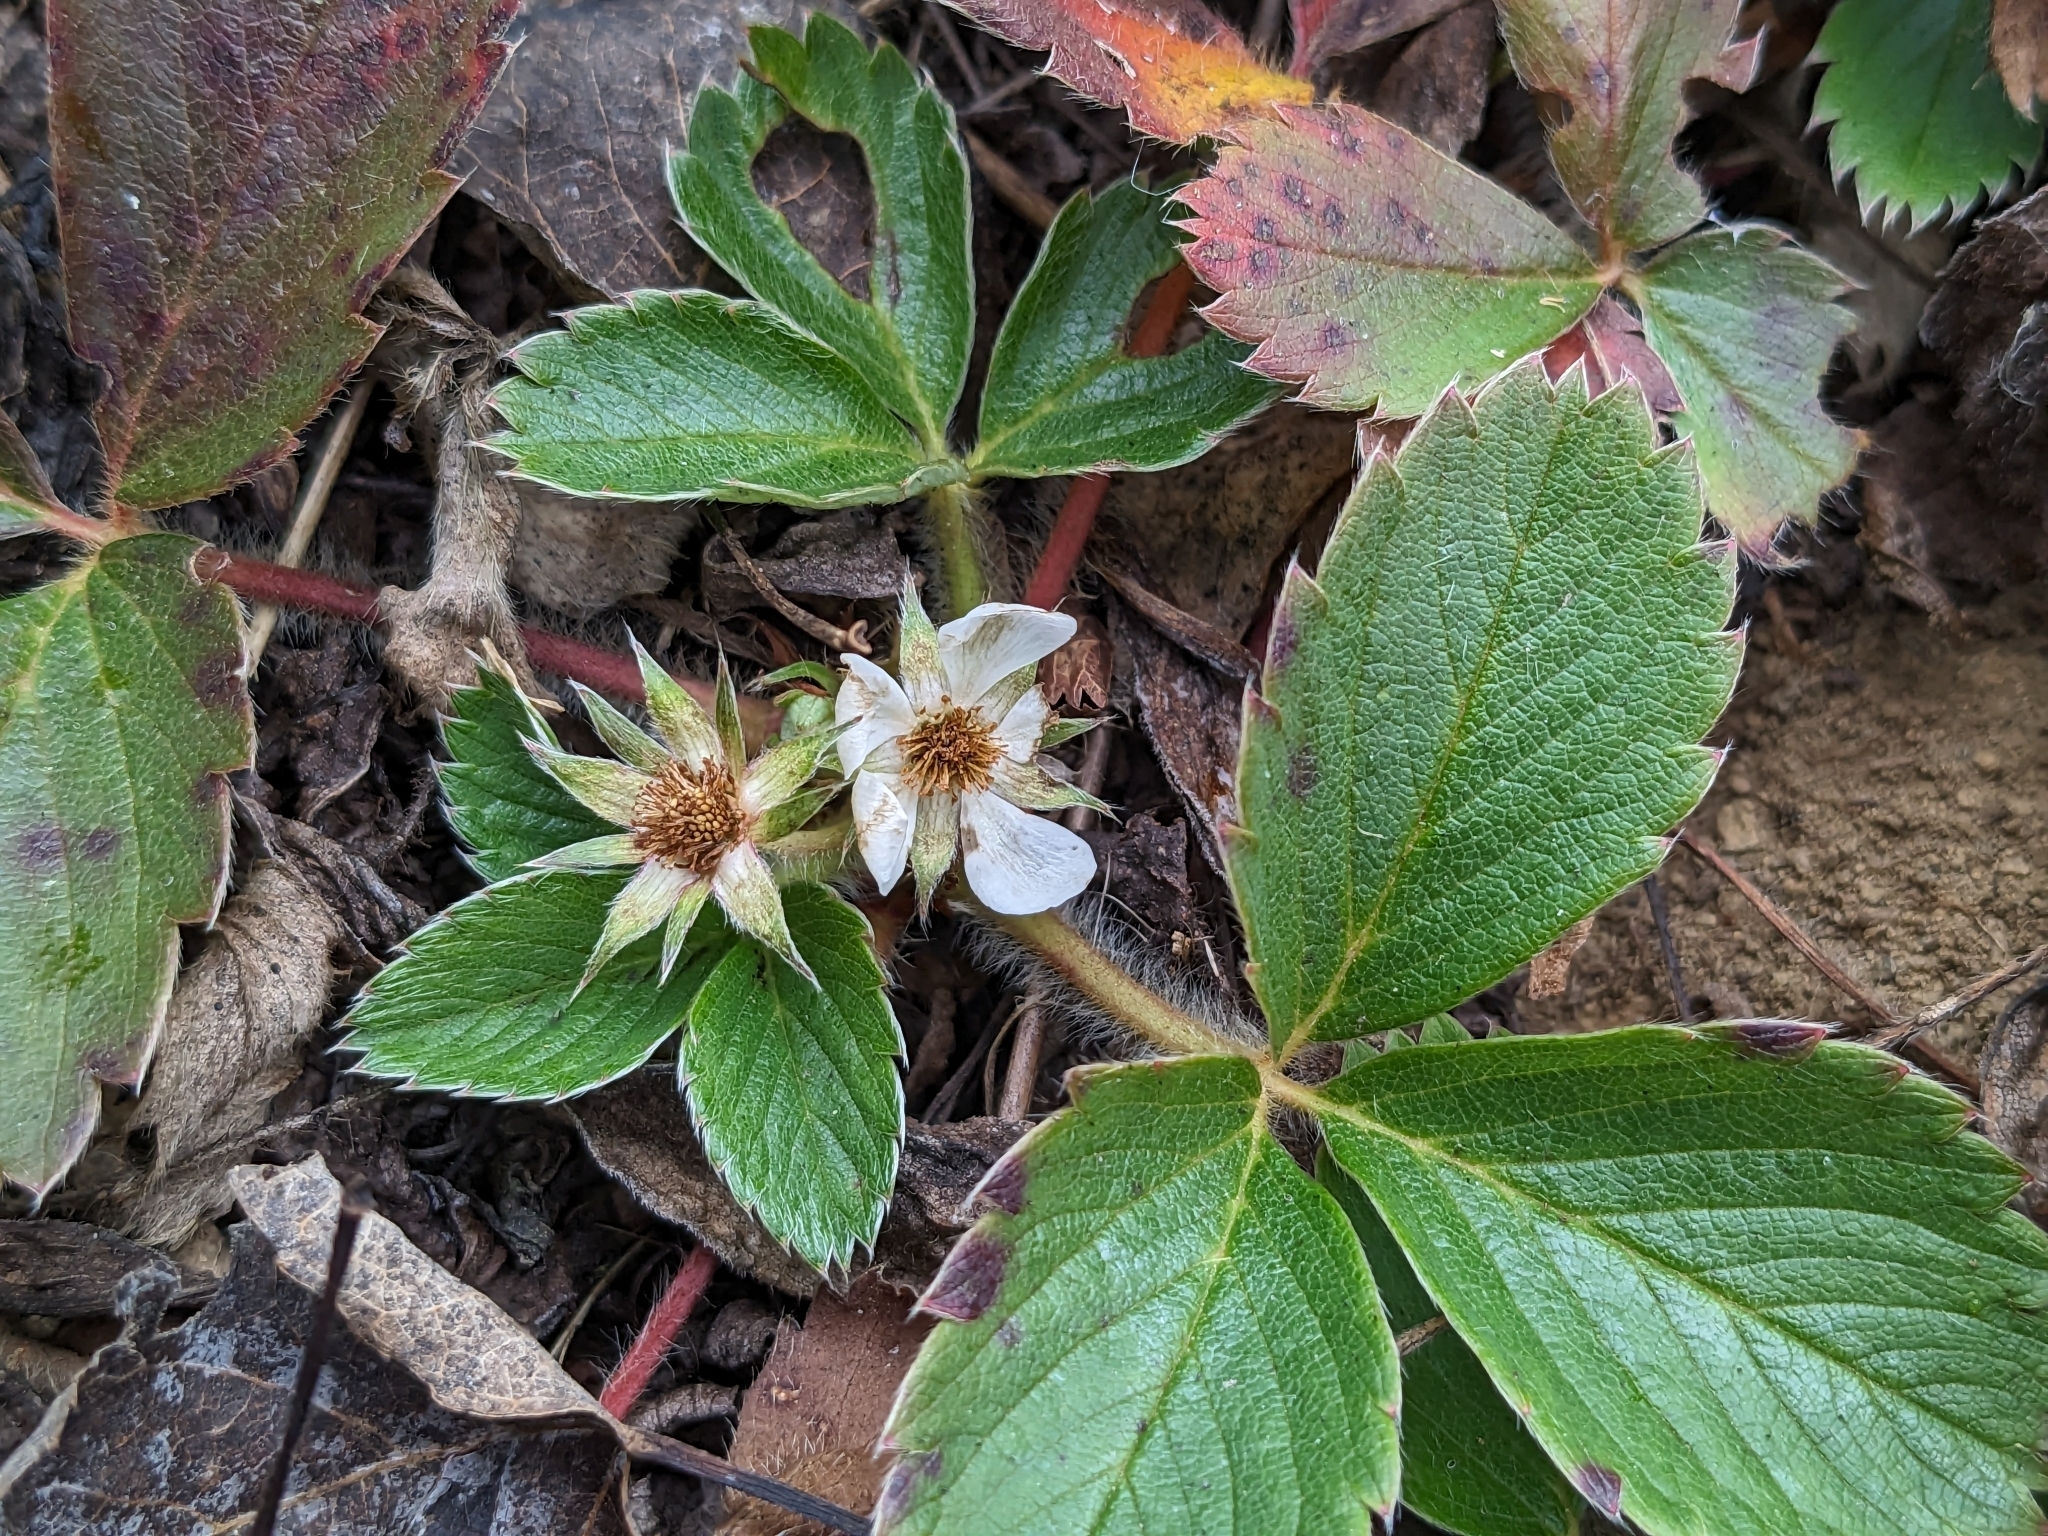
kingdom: Plantae
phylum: Tracheophyta
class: Magnoliopsida
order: Rosales
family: Rosaceae
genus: Fragaria
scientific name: Fragaria virginiana
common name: Thickleaved wild strawberry
